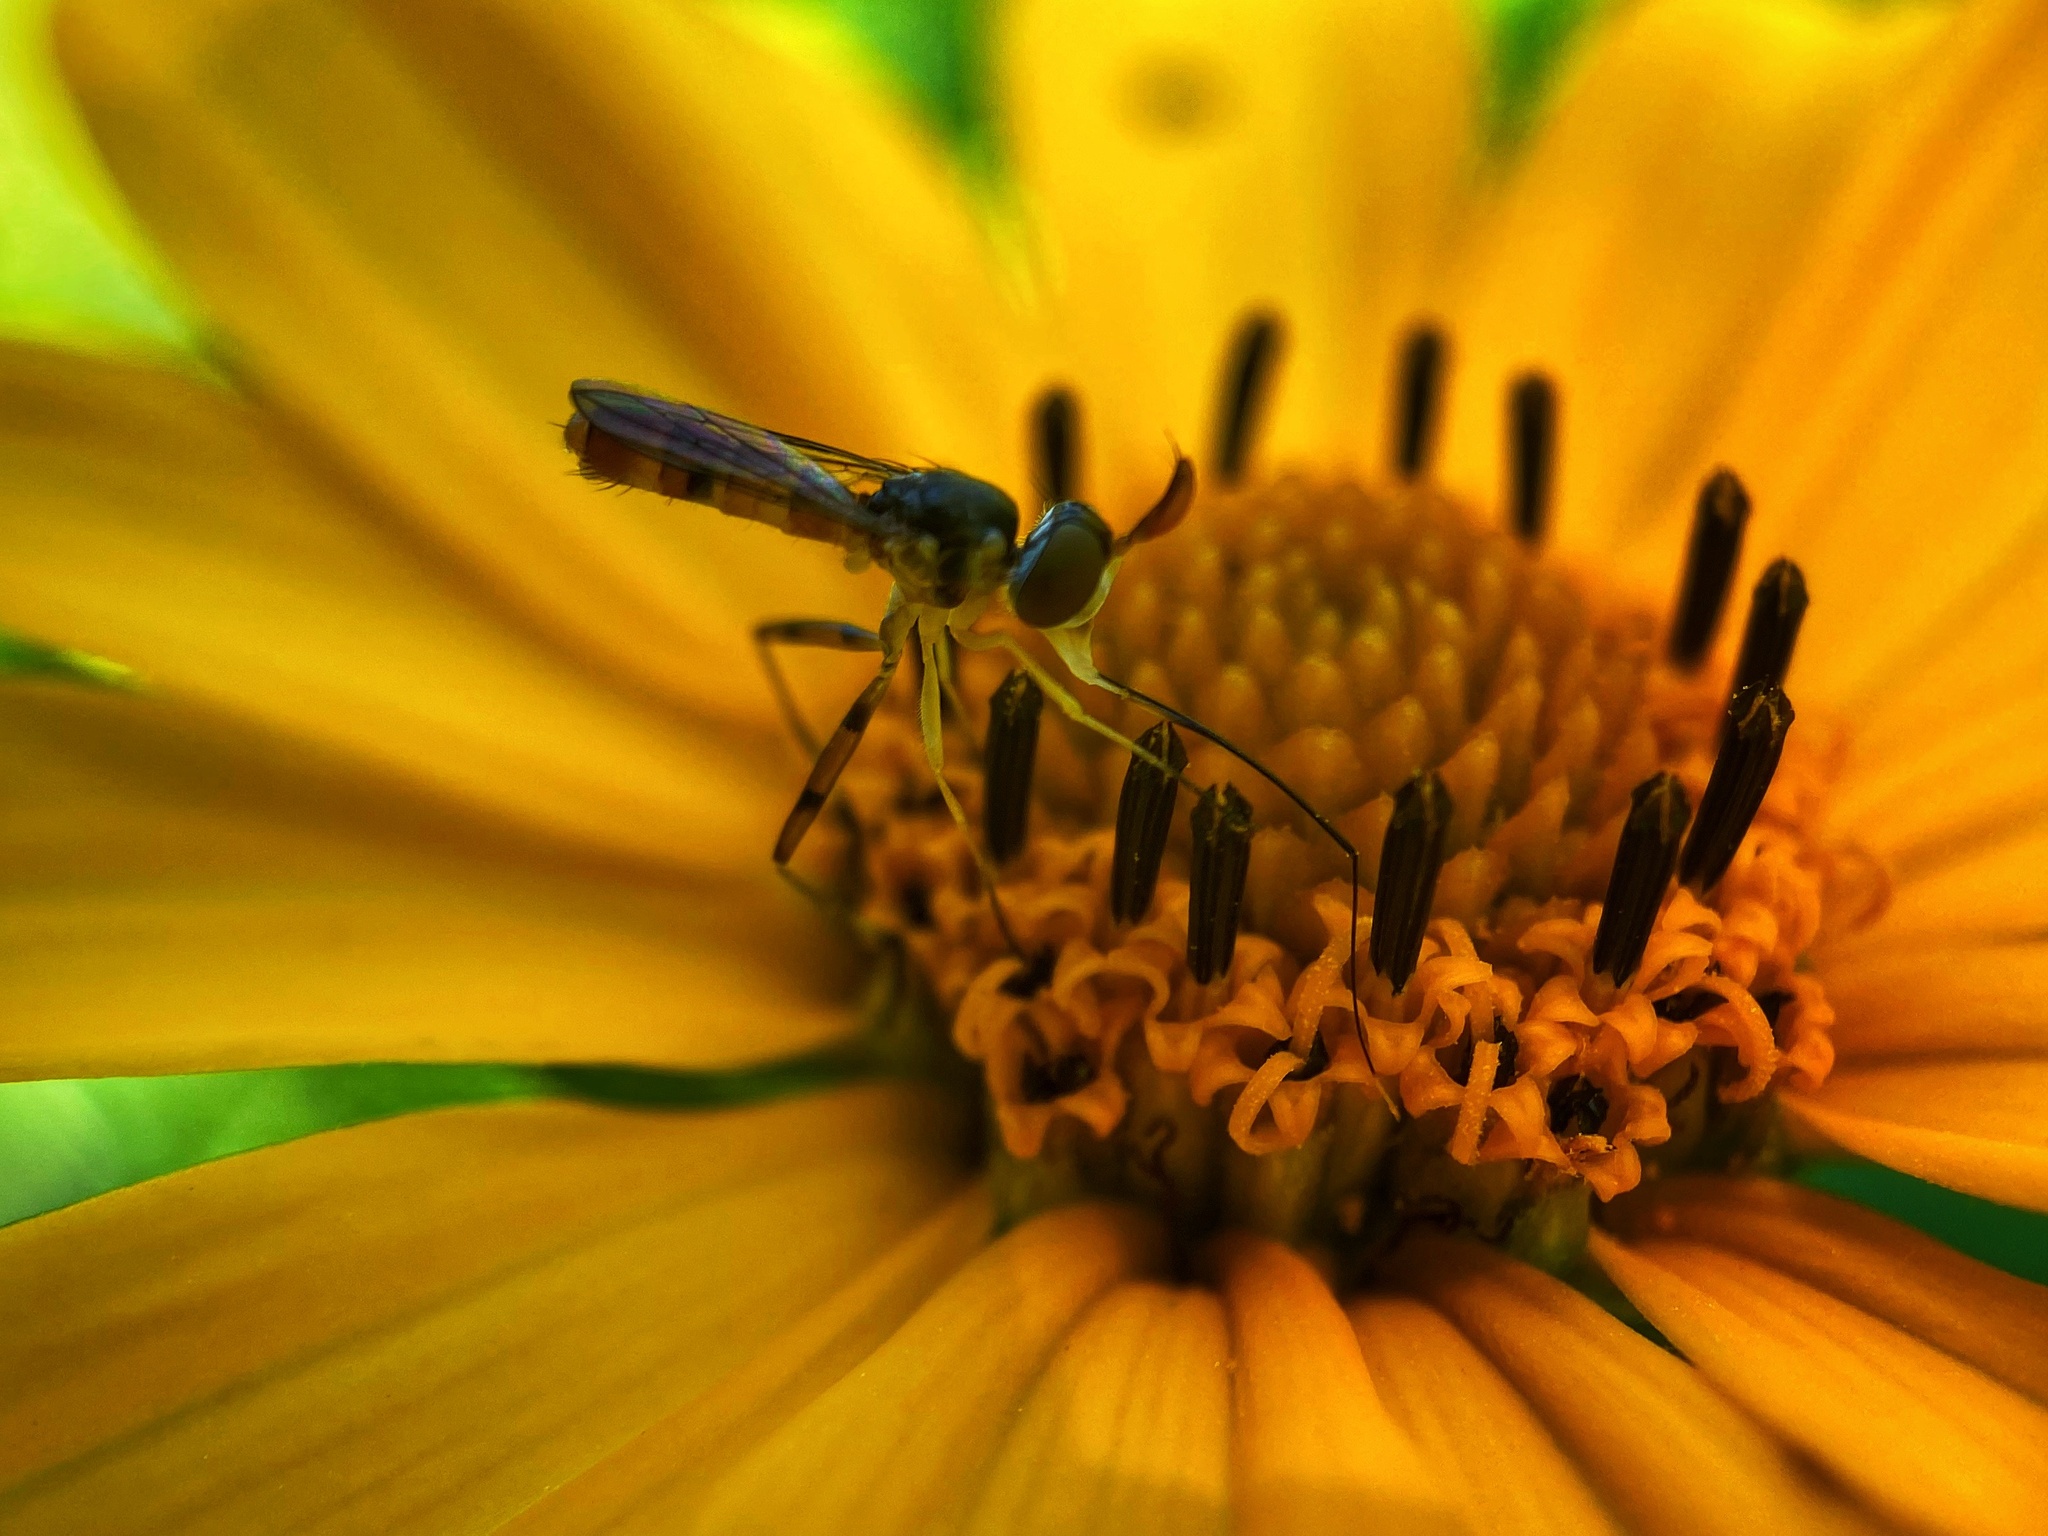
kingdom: Animalia
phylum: Arthropoda
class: Insecta
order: Diptera
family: Conopidae
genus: Stylogaster
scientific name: Stylogaster neglecta
